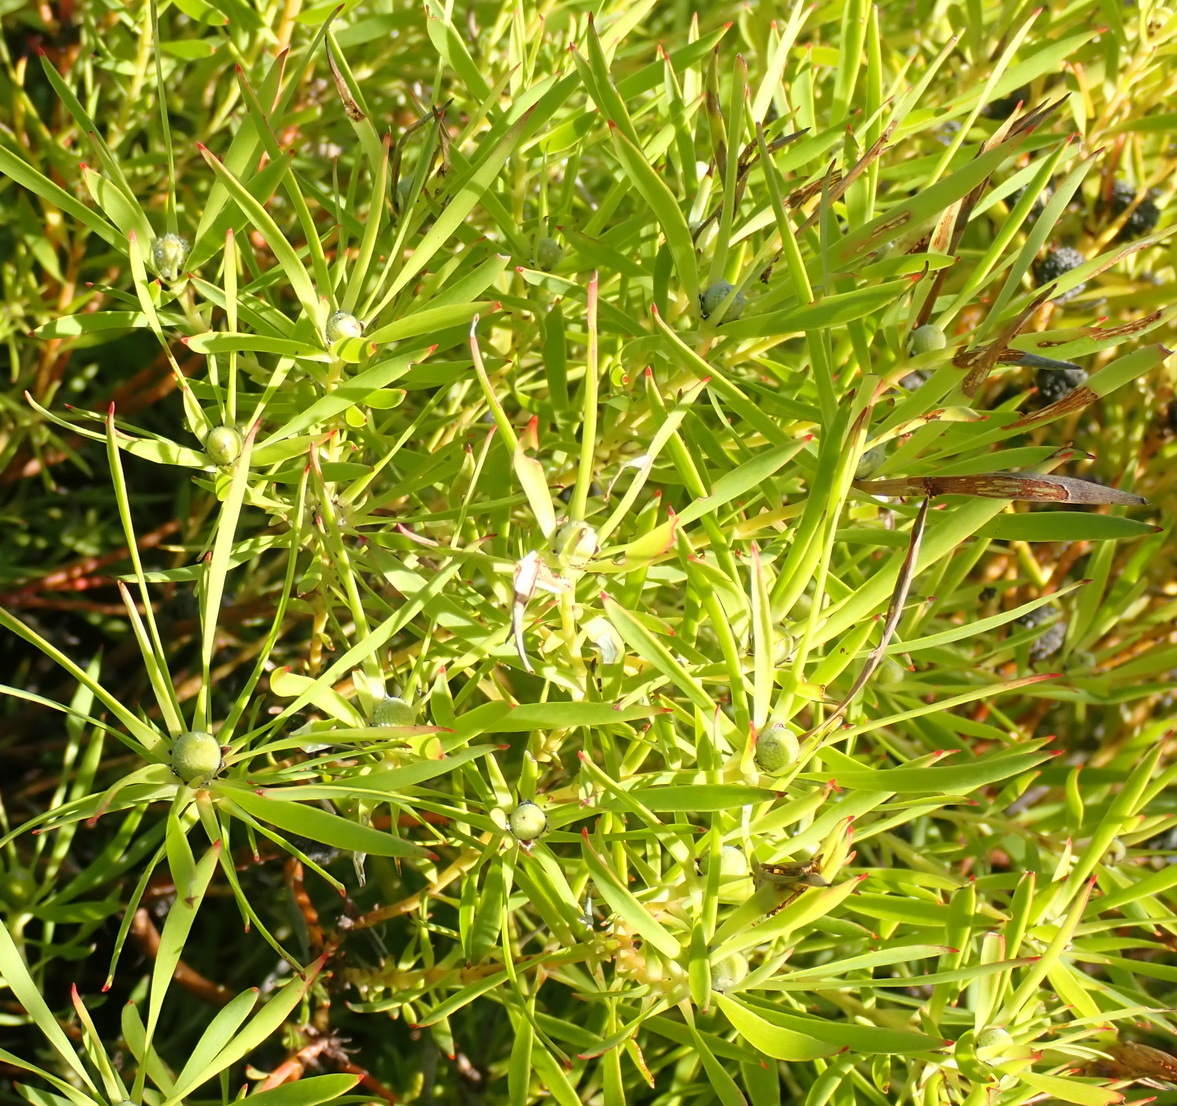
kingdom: Plantae
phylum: Tracheophyta
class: Magnoliopsida
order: Proteales
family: Proteaceae
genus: Leucadendron
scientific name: Leucadendron salignum
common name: Common sunshine conebush
